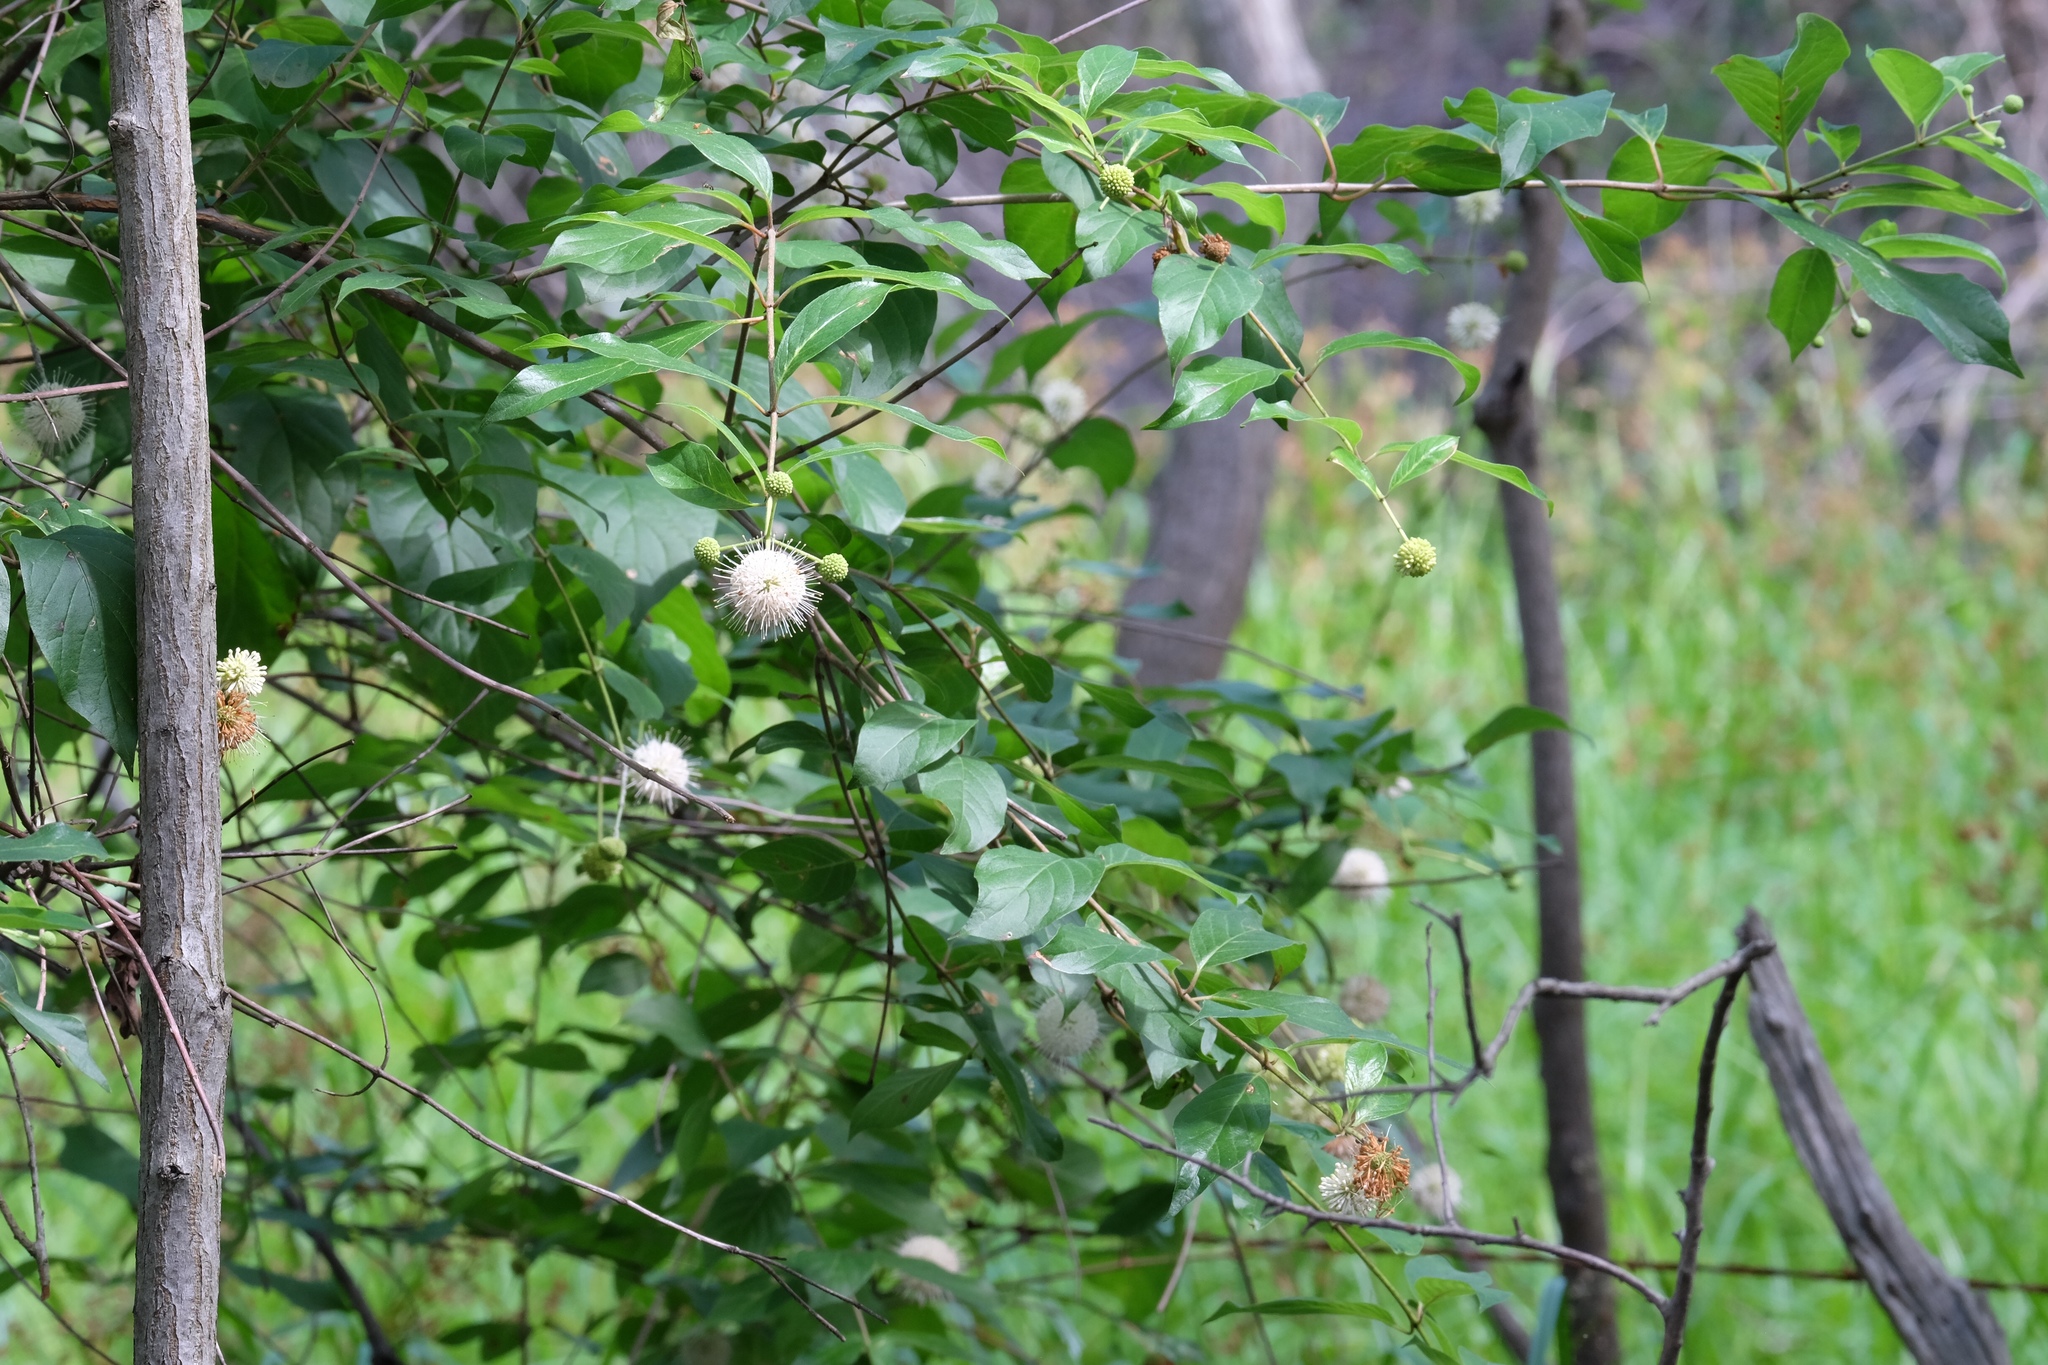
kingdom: Plantae
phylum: Tracheophyta
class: Magnoliopsida
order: Gentianales
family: Rubiaceae
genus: Cephalanthus
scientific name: Cephalanthus occidentalis
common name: Button-willow
